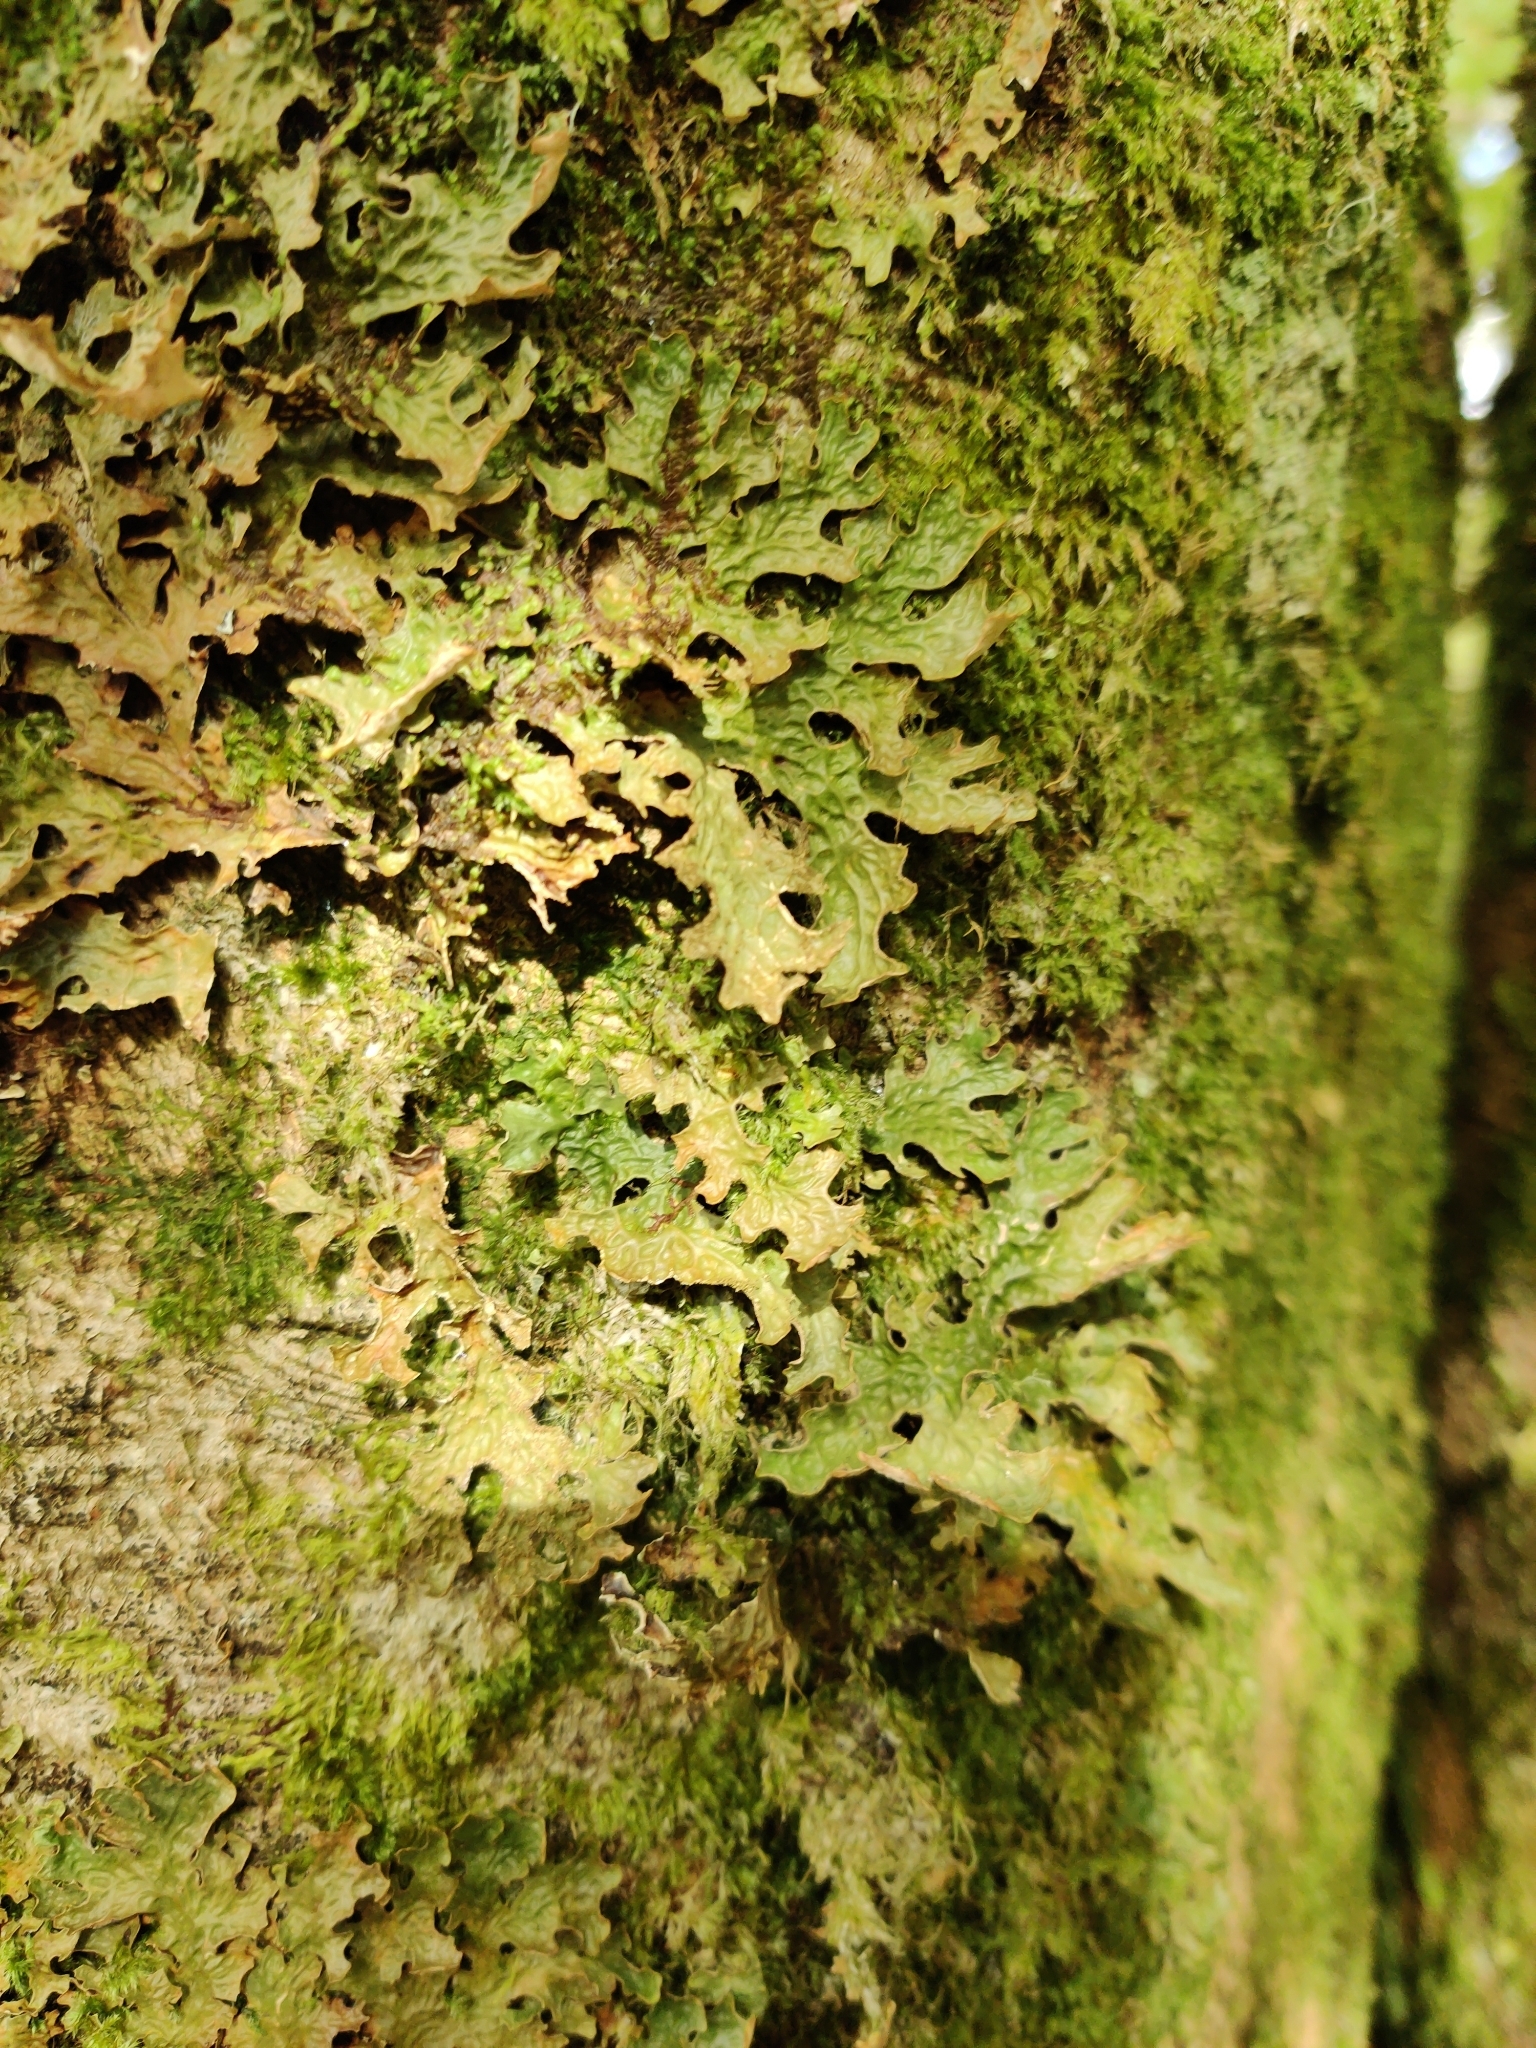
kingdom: Fungi
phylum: Ascomycota
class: Lecanoromycetes
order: Peltigerales
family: Lobariaceae
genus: Lobaria
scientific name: Lobaria pulmonaria
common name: Lungwort
